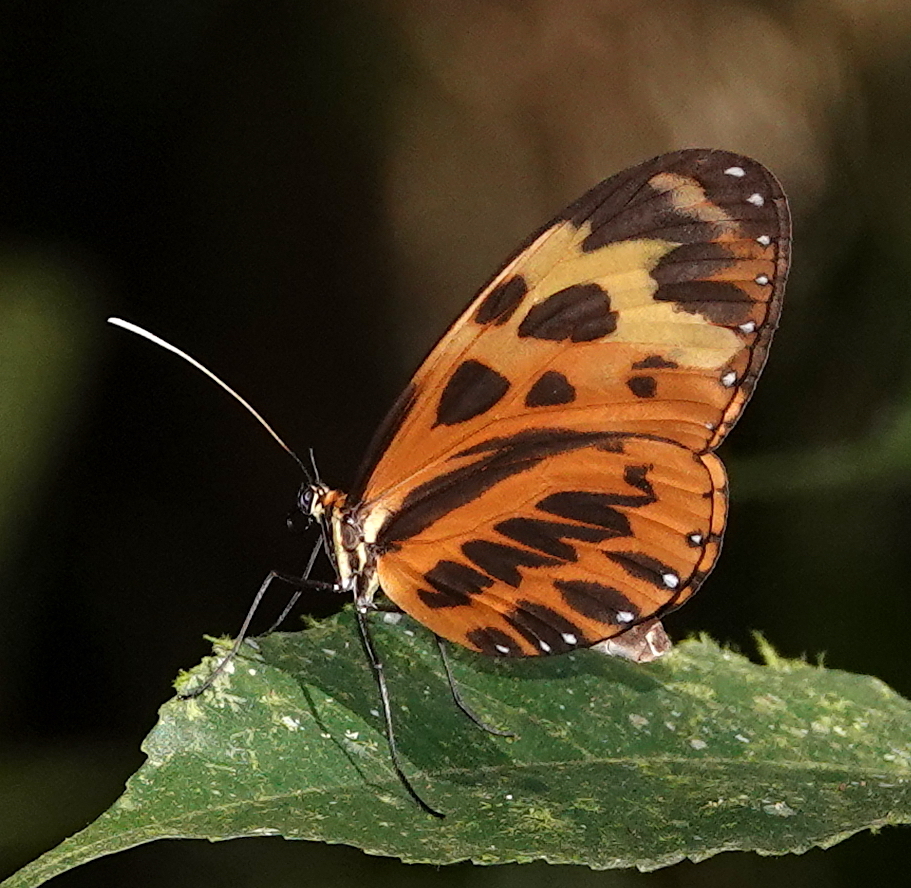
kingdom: Animalia
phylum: Arthropoda
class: Insecta
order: Lepidoptera
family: Nymphalidae
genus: Mechanitis
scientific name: Mechanitis mazaeus
